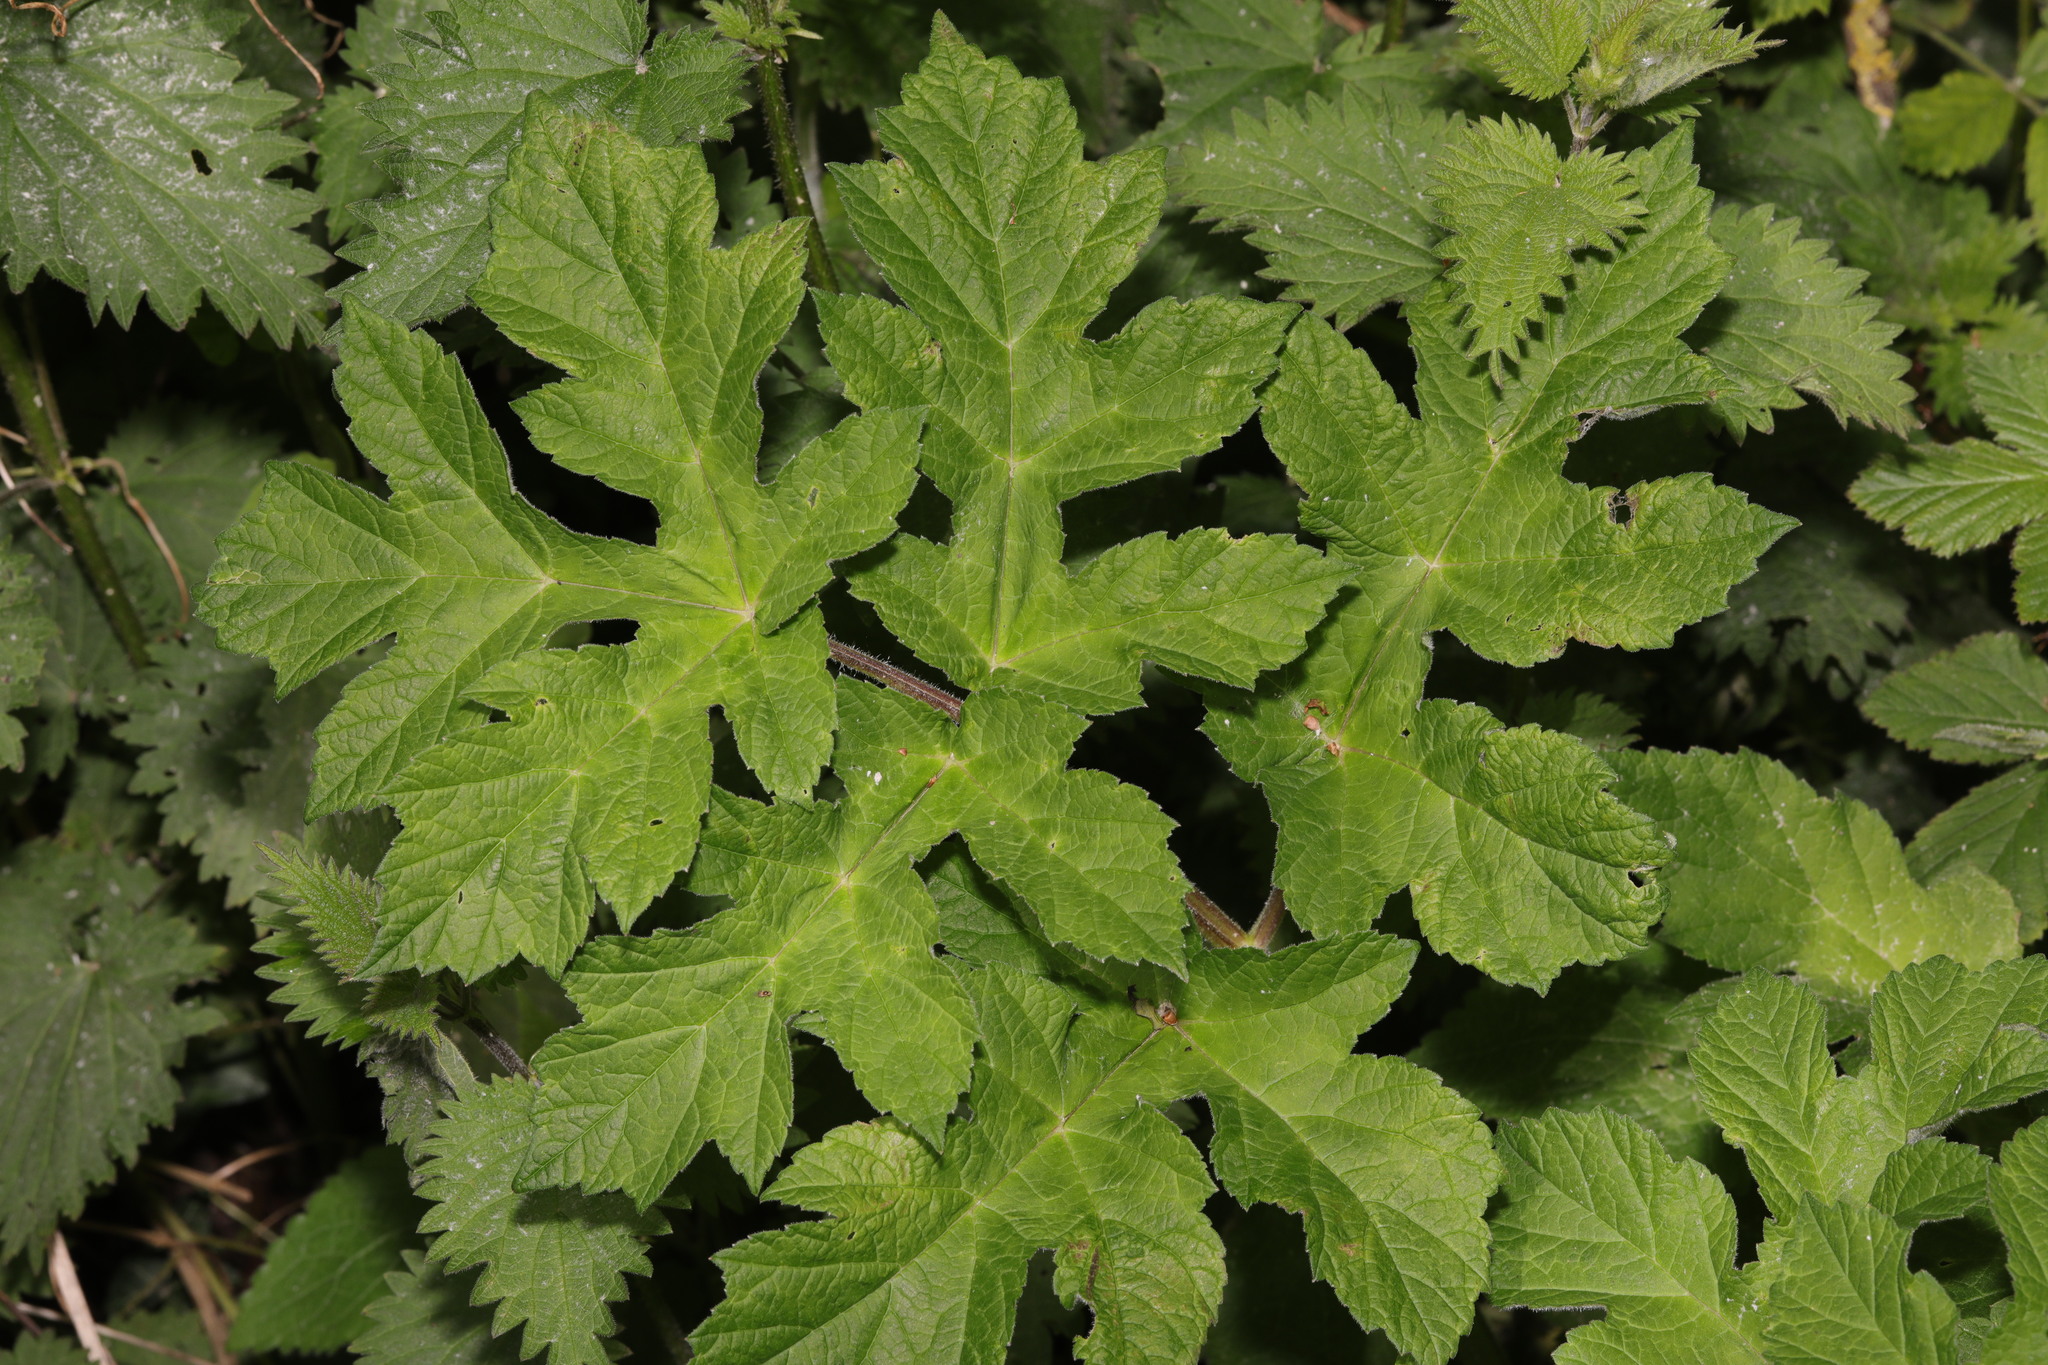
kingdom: Plantae
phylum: Tracheophyta
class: Magnoliopsida
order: Apiales
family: Apiaceae
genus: Heracleum
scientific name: Heracleum sphondylium
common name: Hogweed
